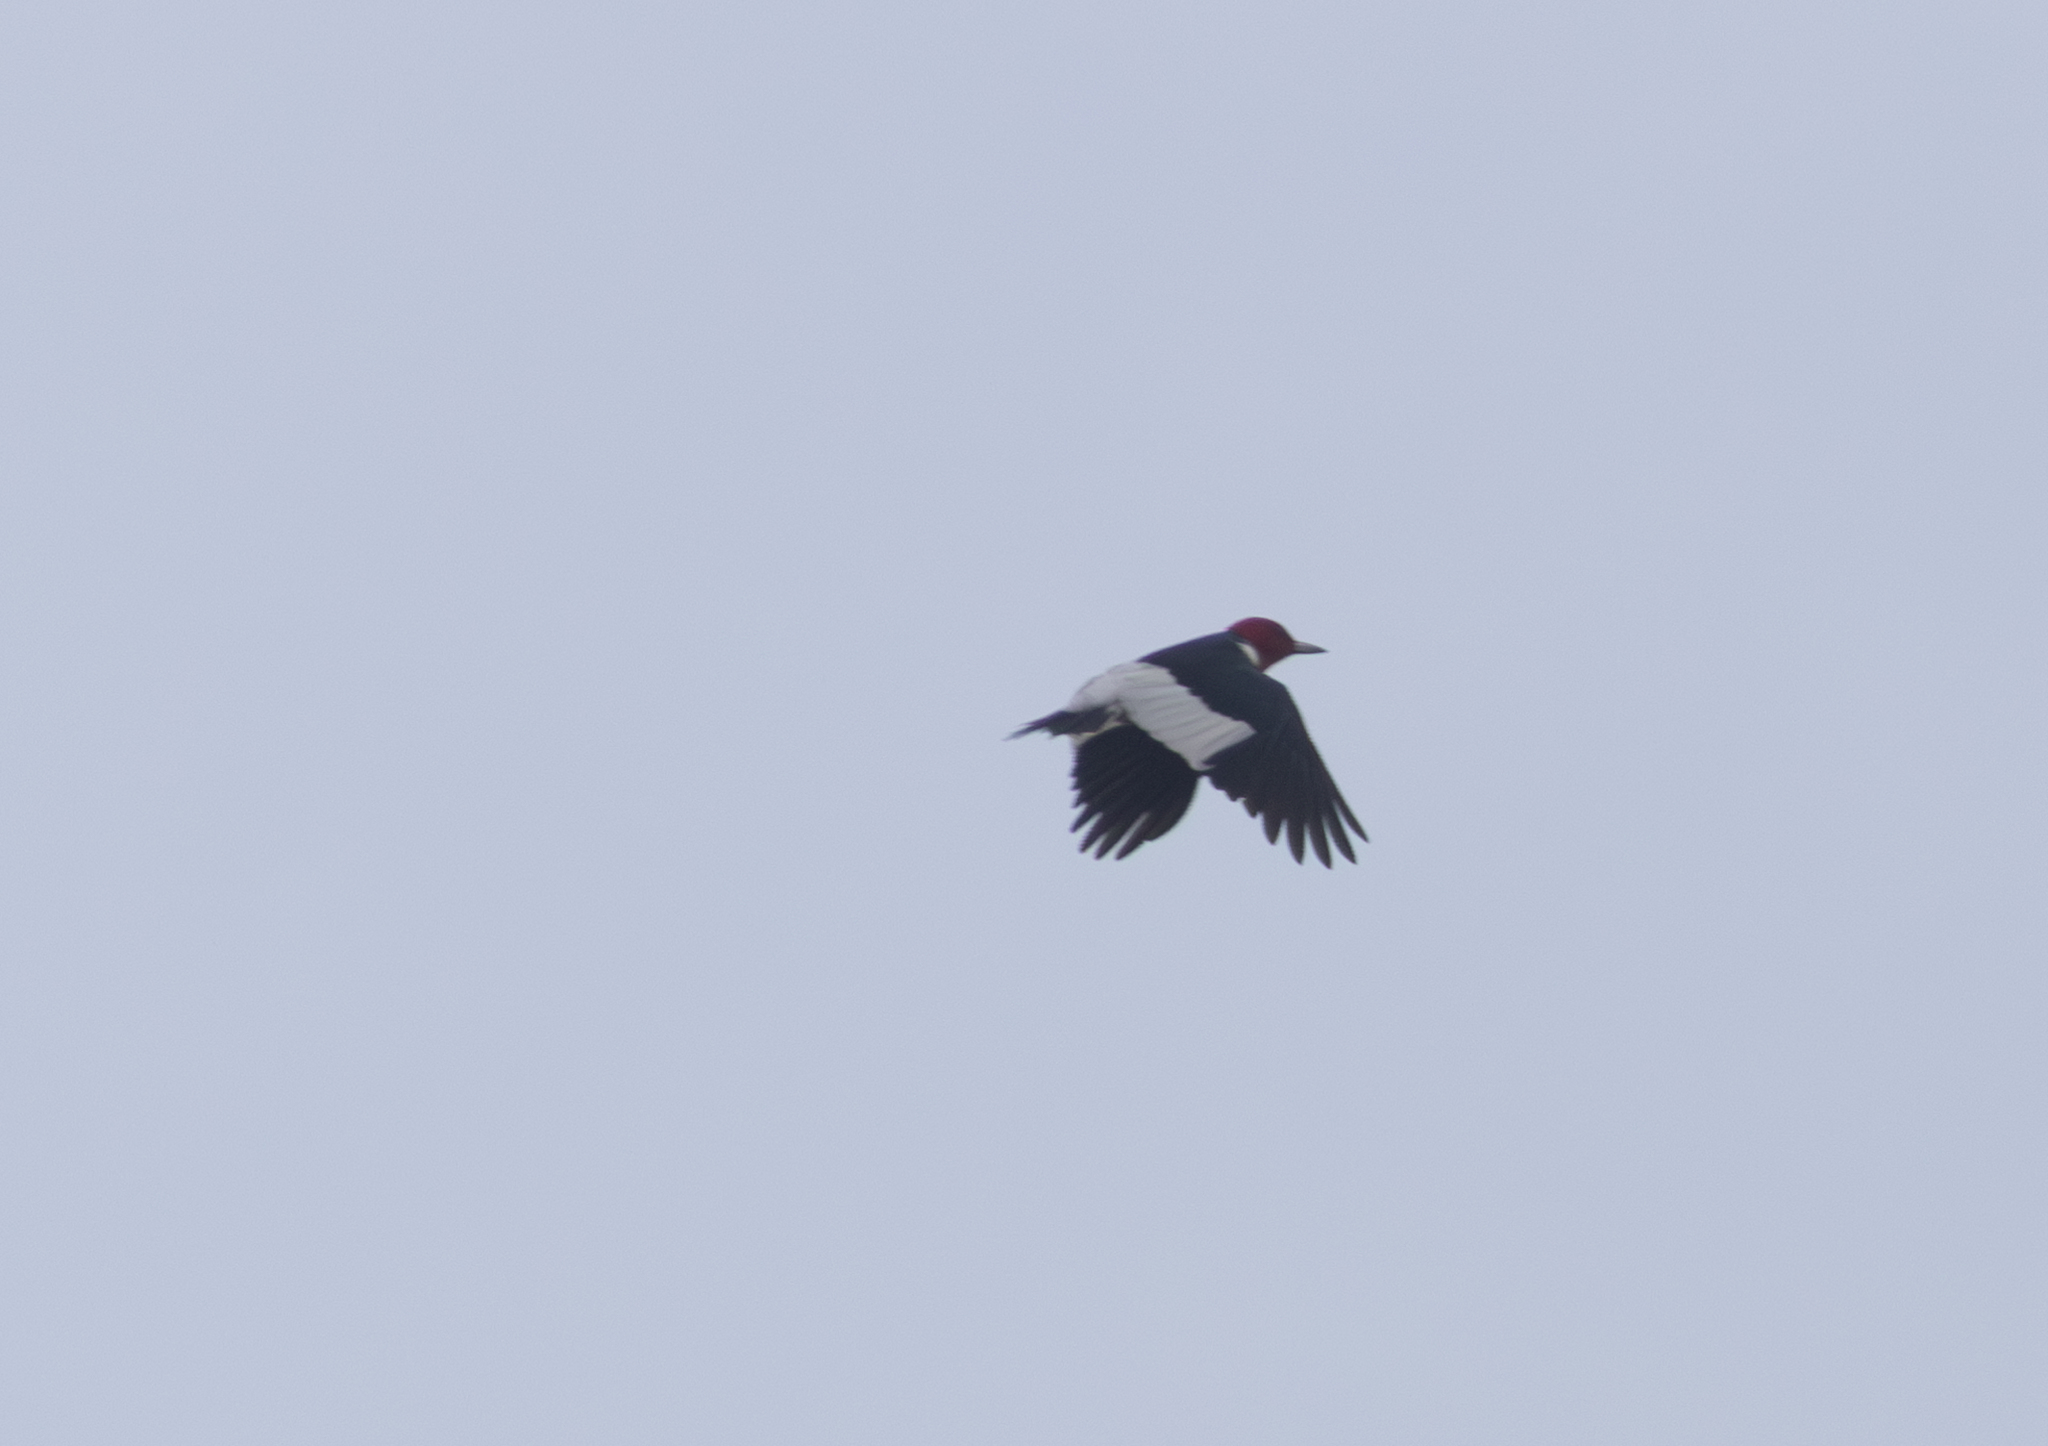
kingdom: Animalia
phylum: Chordata
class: Aves
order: Piciformes
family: Picidae
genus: Melanerpes
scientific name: Melanerpes erythrocephalus
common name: Red-headed woodpecker
